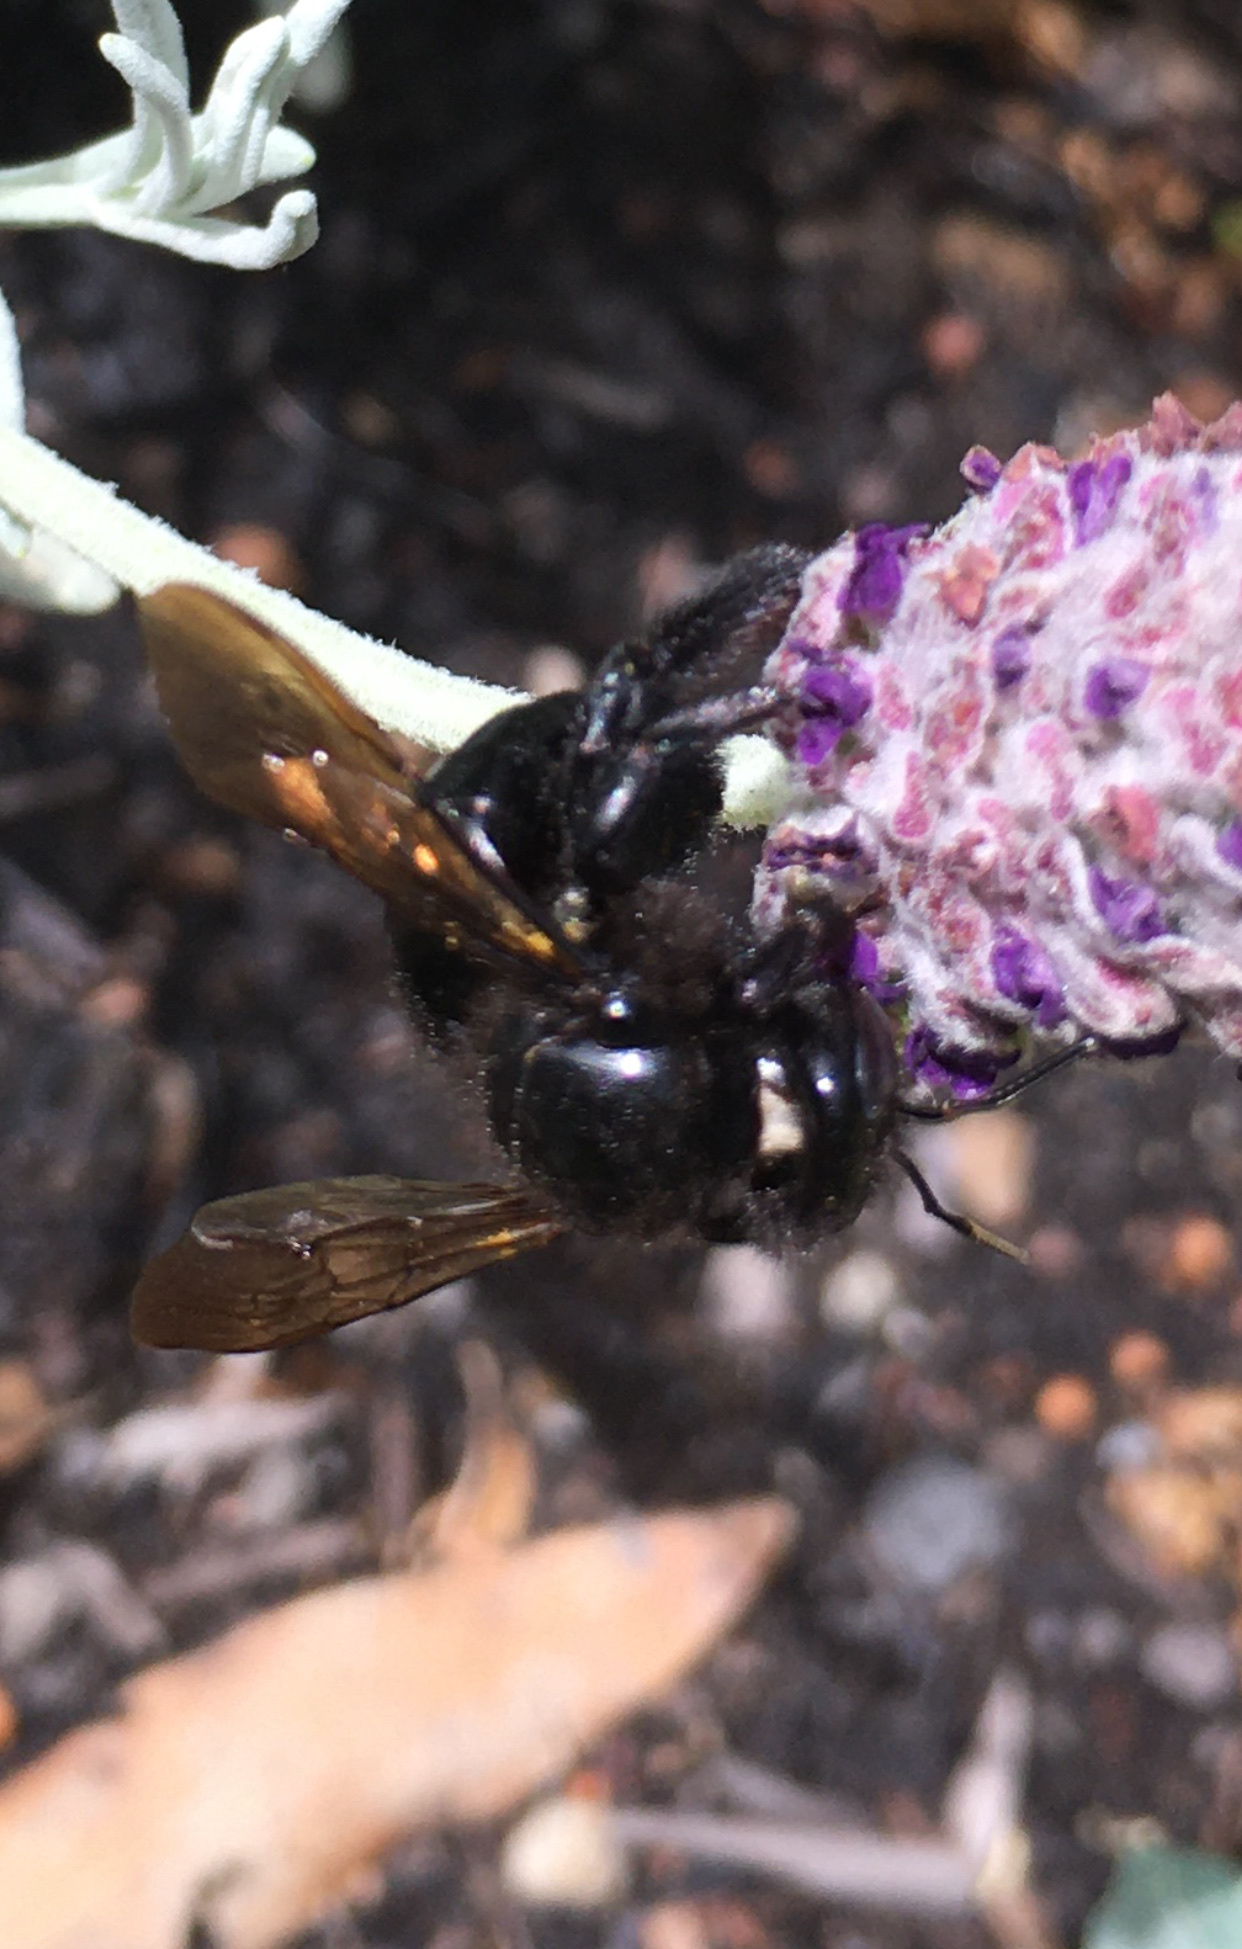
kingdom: Animalia
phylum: Arthropoda
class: Insecta
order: Hymenoptera
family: Apidae
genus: Xylocopa
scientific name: Xylocopa sonorina
